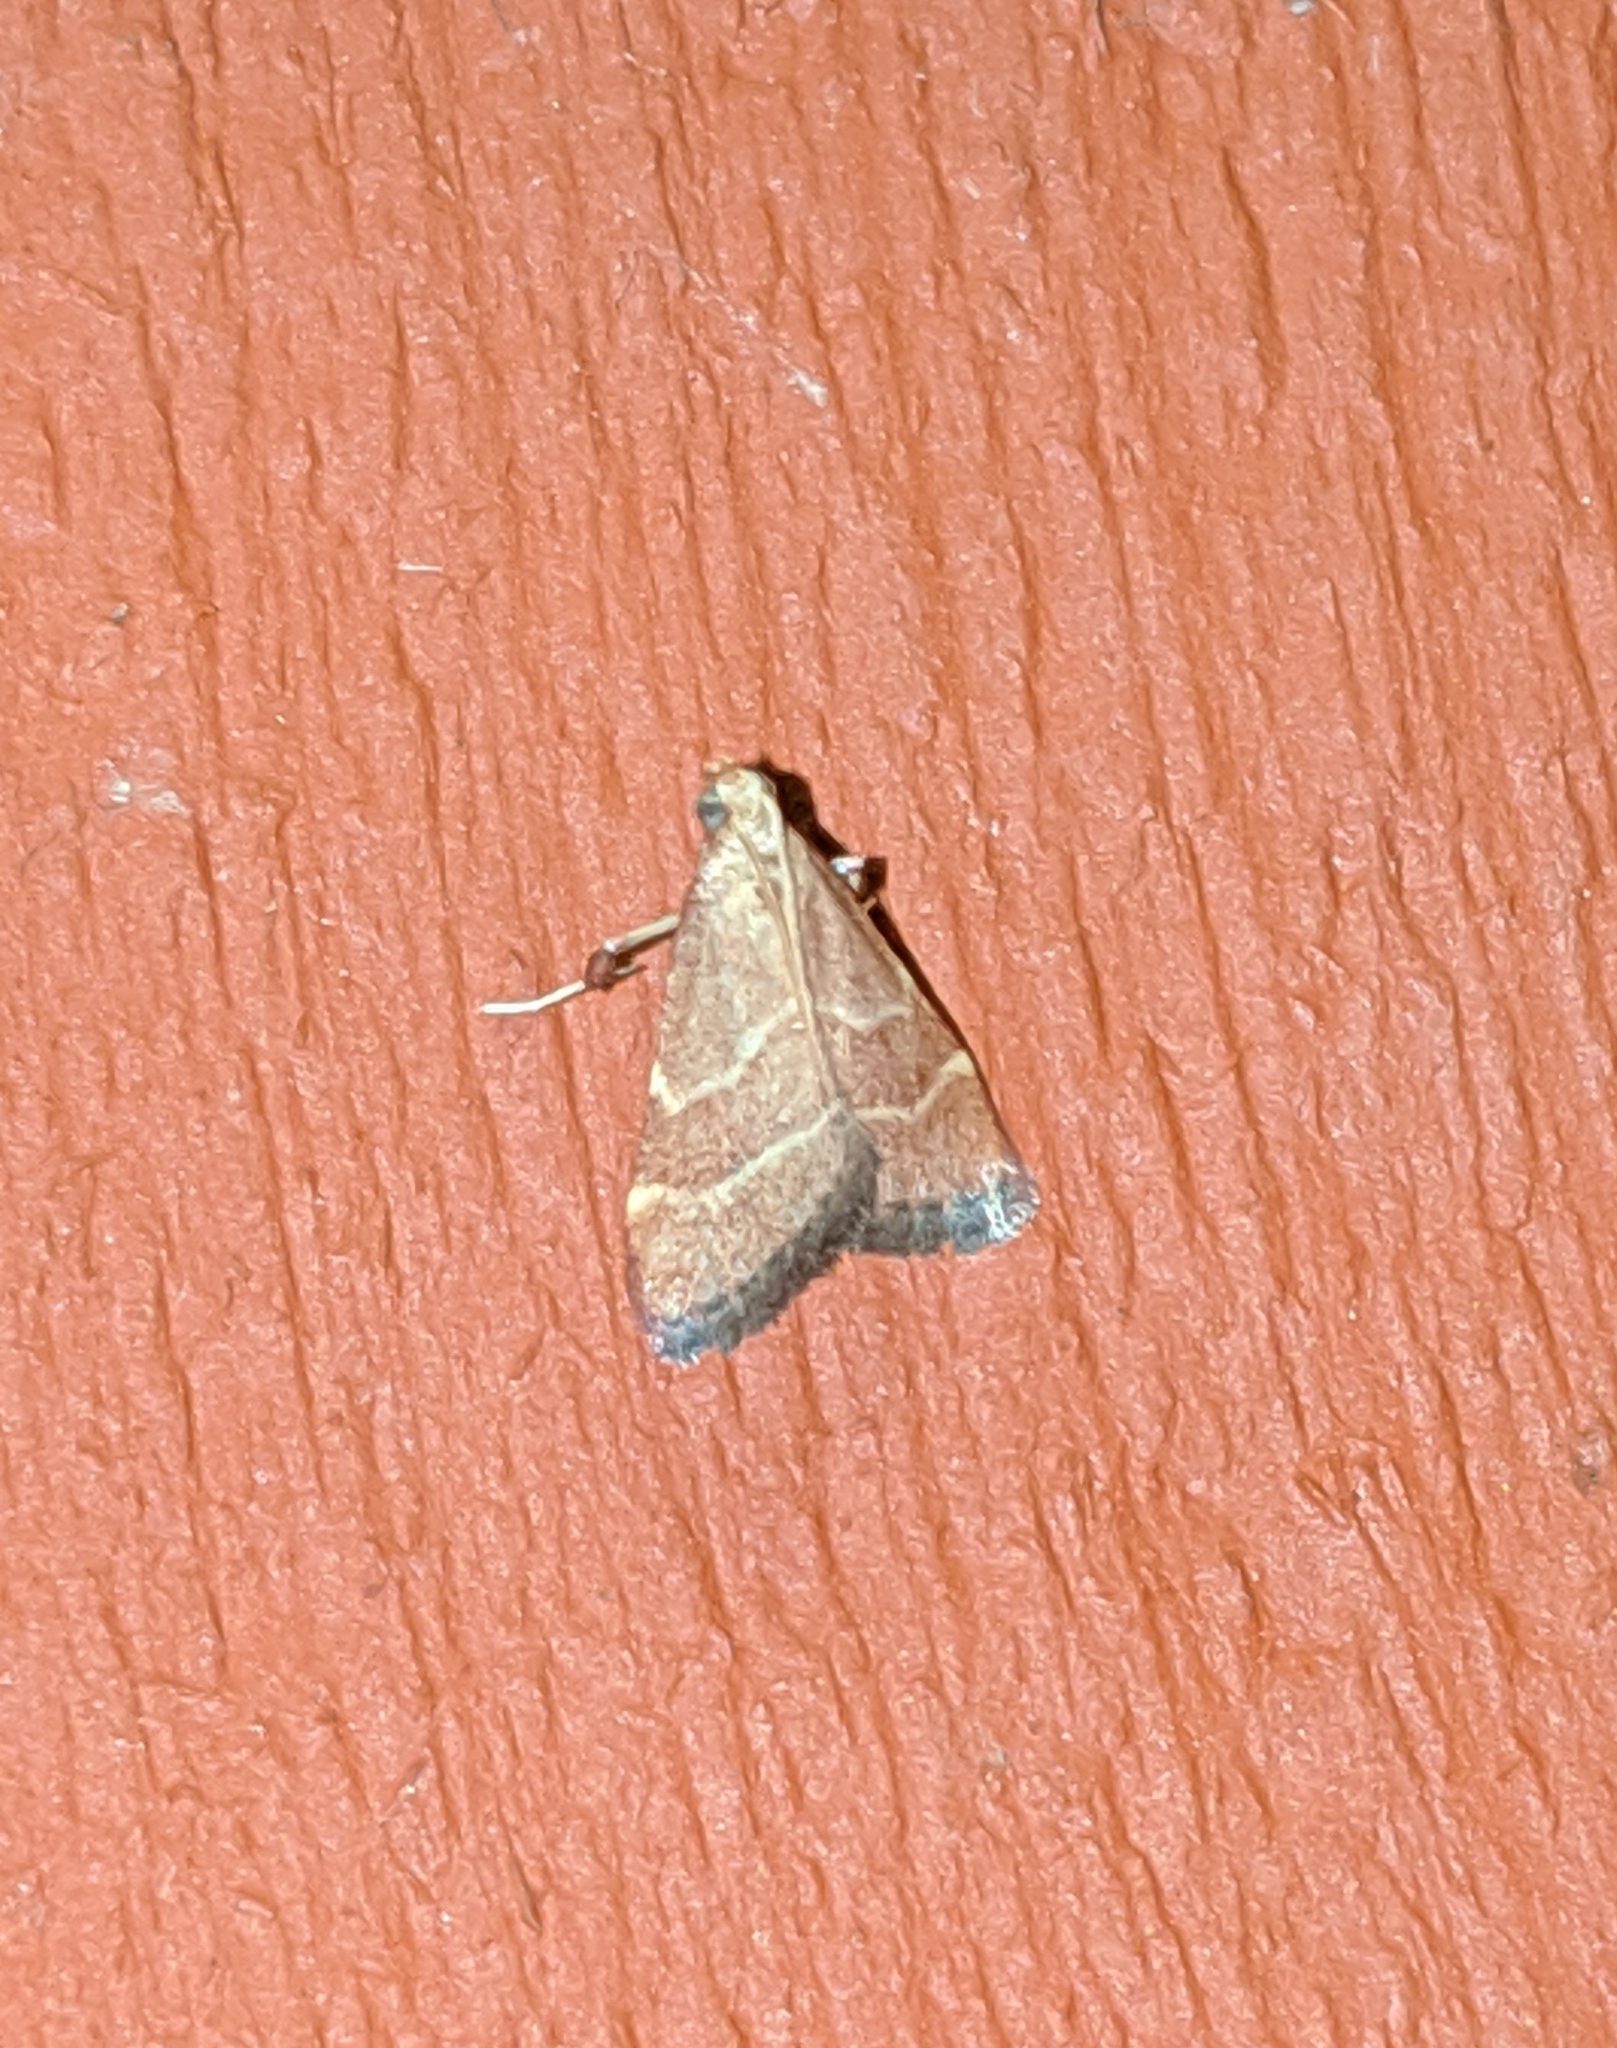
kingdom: Animalia
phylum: Arthropoda
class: Insecta
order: Lepidoptera
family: Pyralidae
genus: Arta
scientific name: Arta epicoenalis
